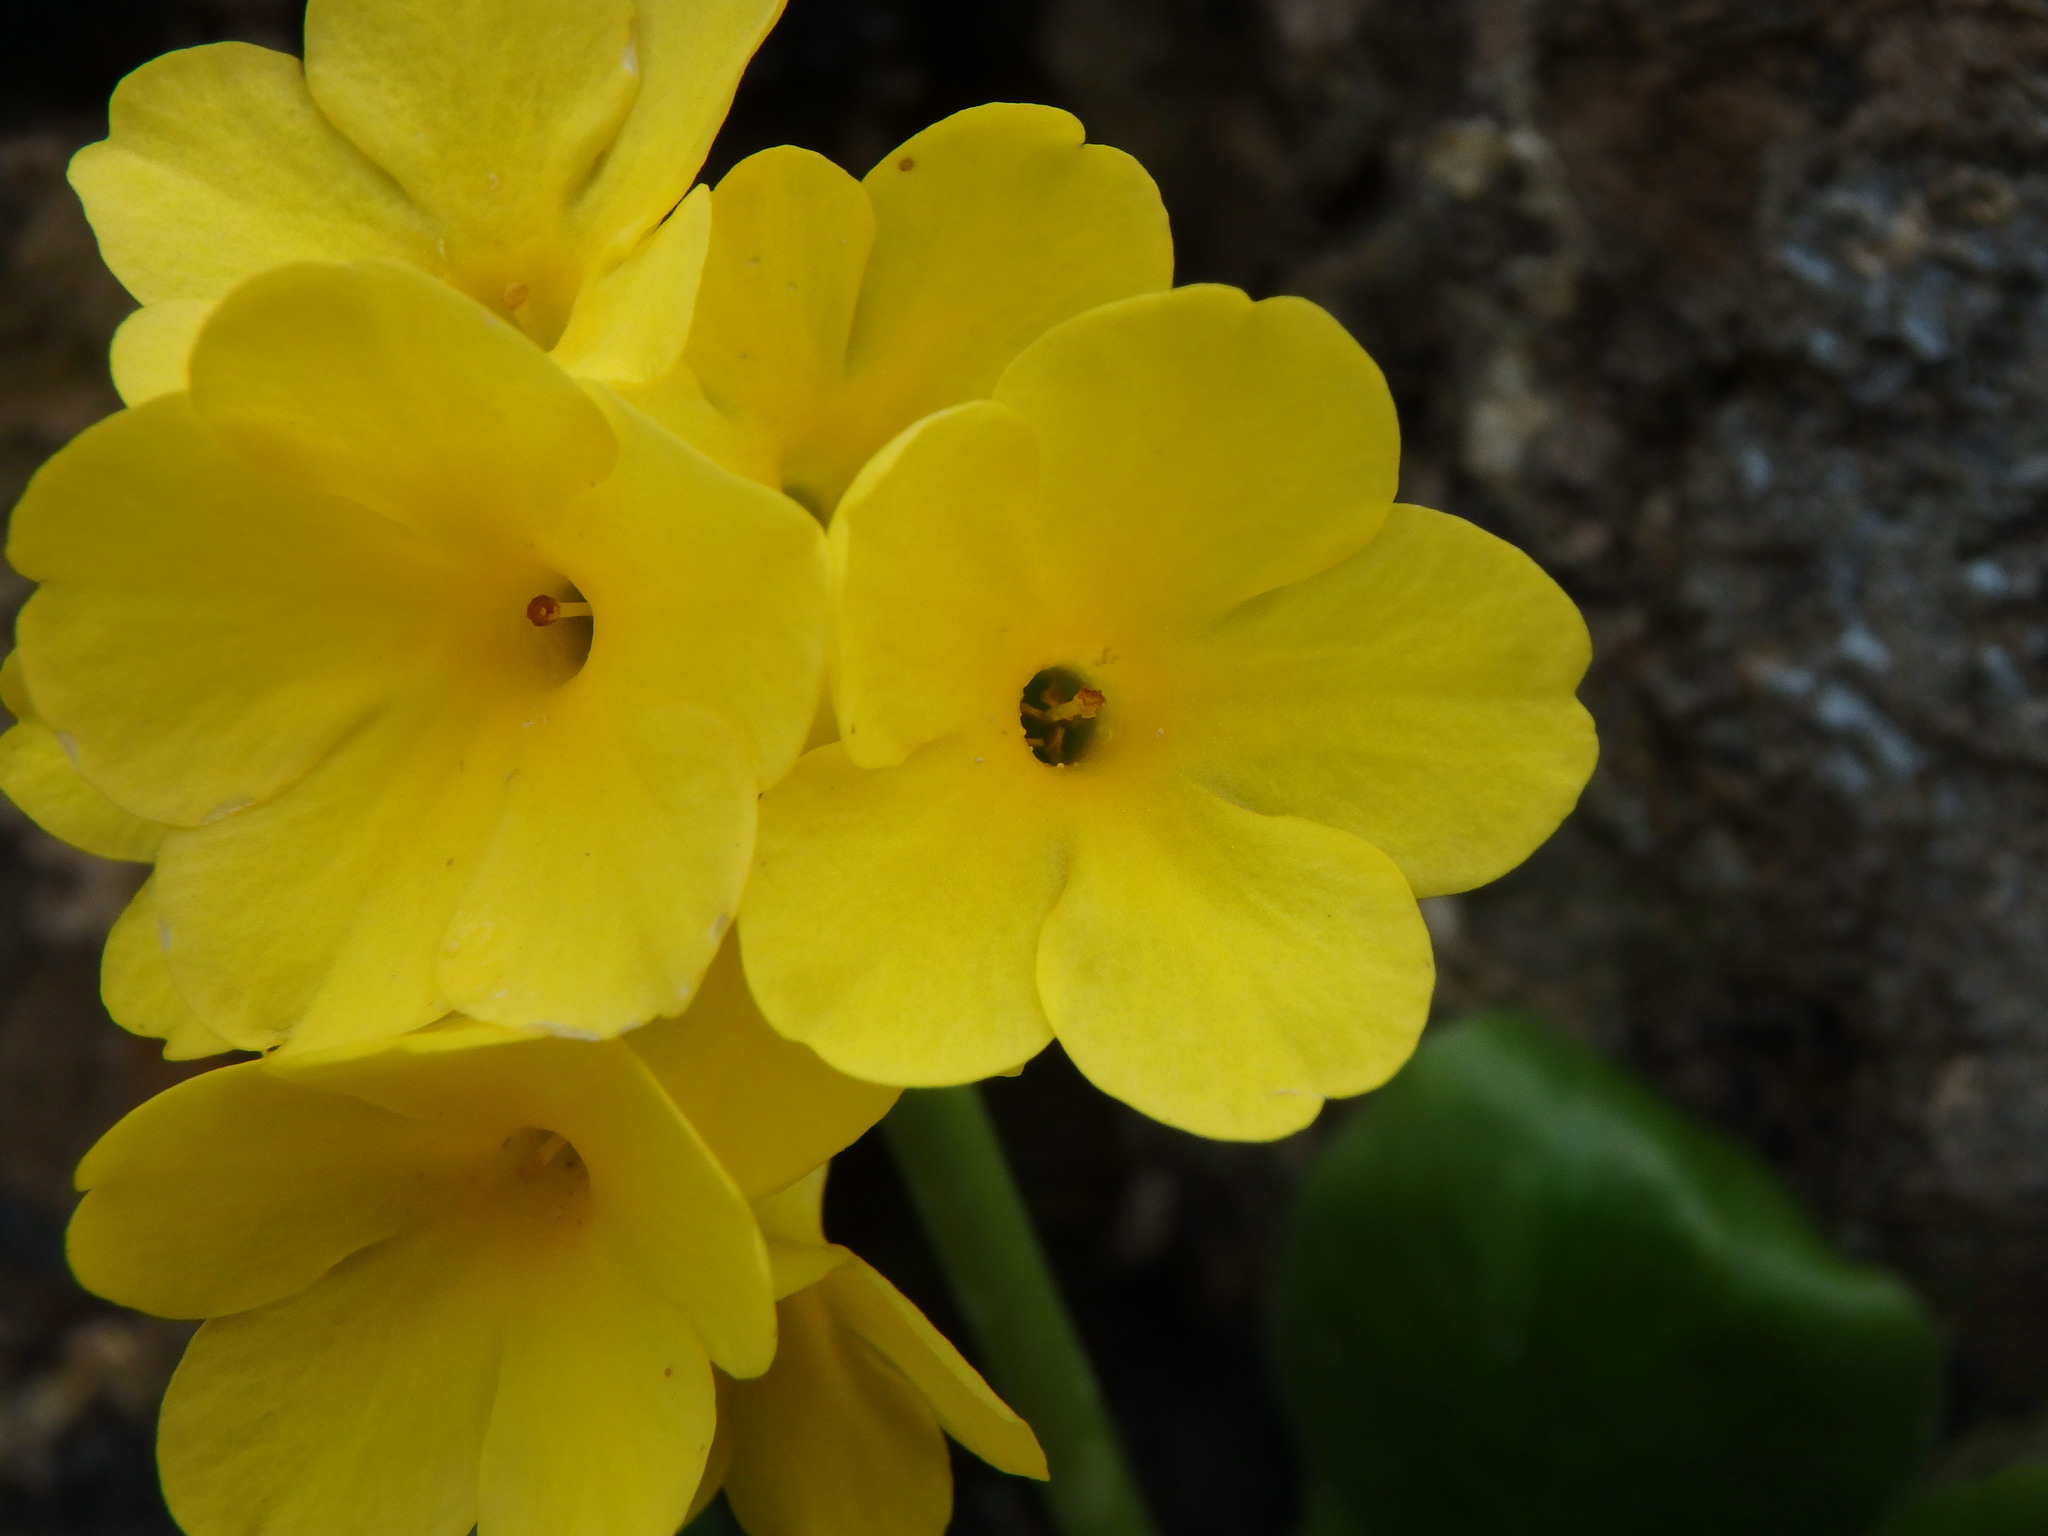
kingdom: Plantae
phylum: Tracheophyta
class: Magnoliopsida
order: Ericales
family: Primulaceae
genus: Primula
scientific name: Primula auricula
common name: Auricula
